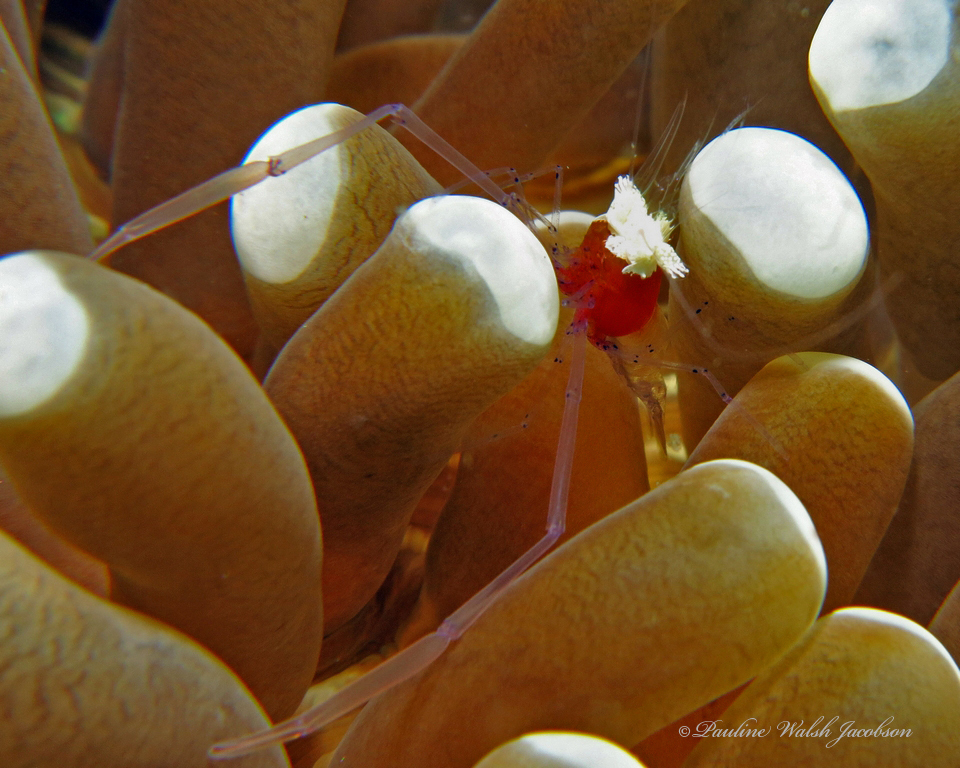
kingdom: Animalia
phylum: Arthropoda
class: Malacostraca
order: Decapoda
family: Palaemonidae
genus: Cuapetes
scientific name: Cuapetes kororensis
